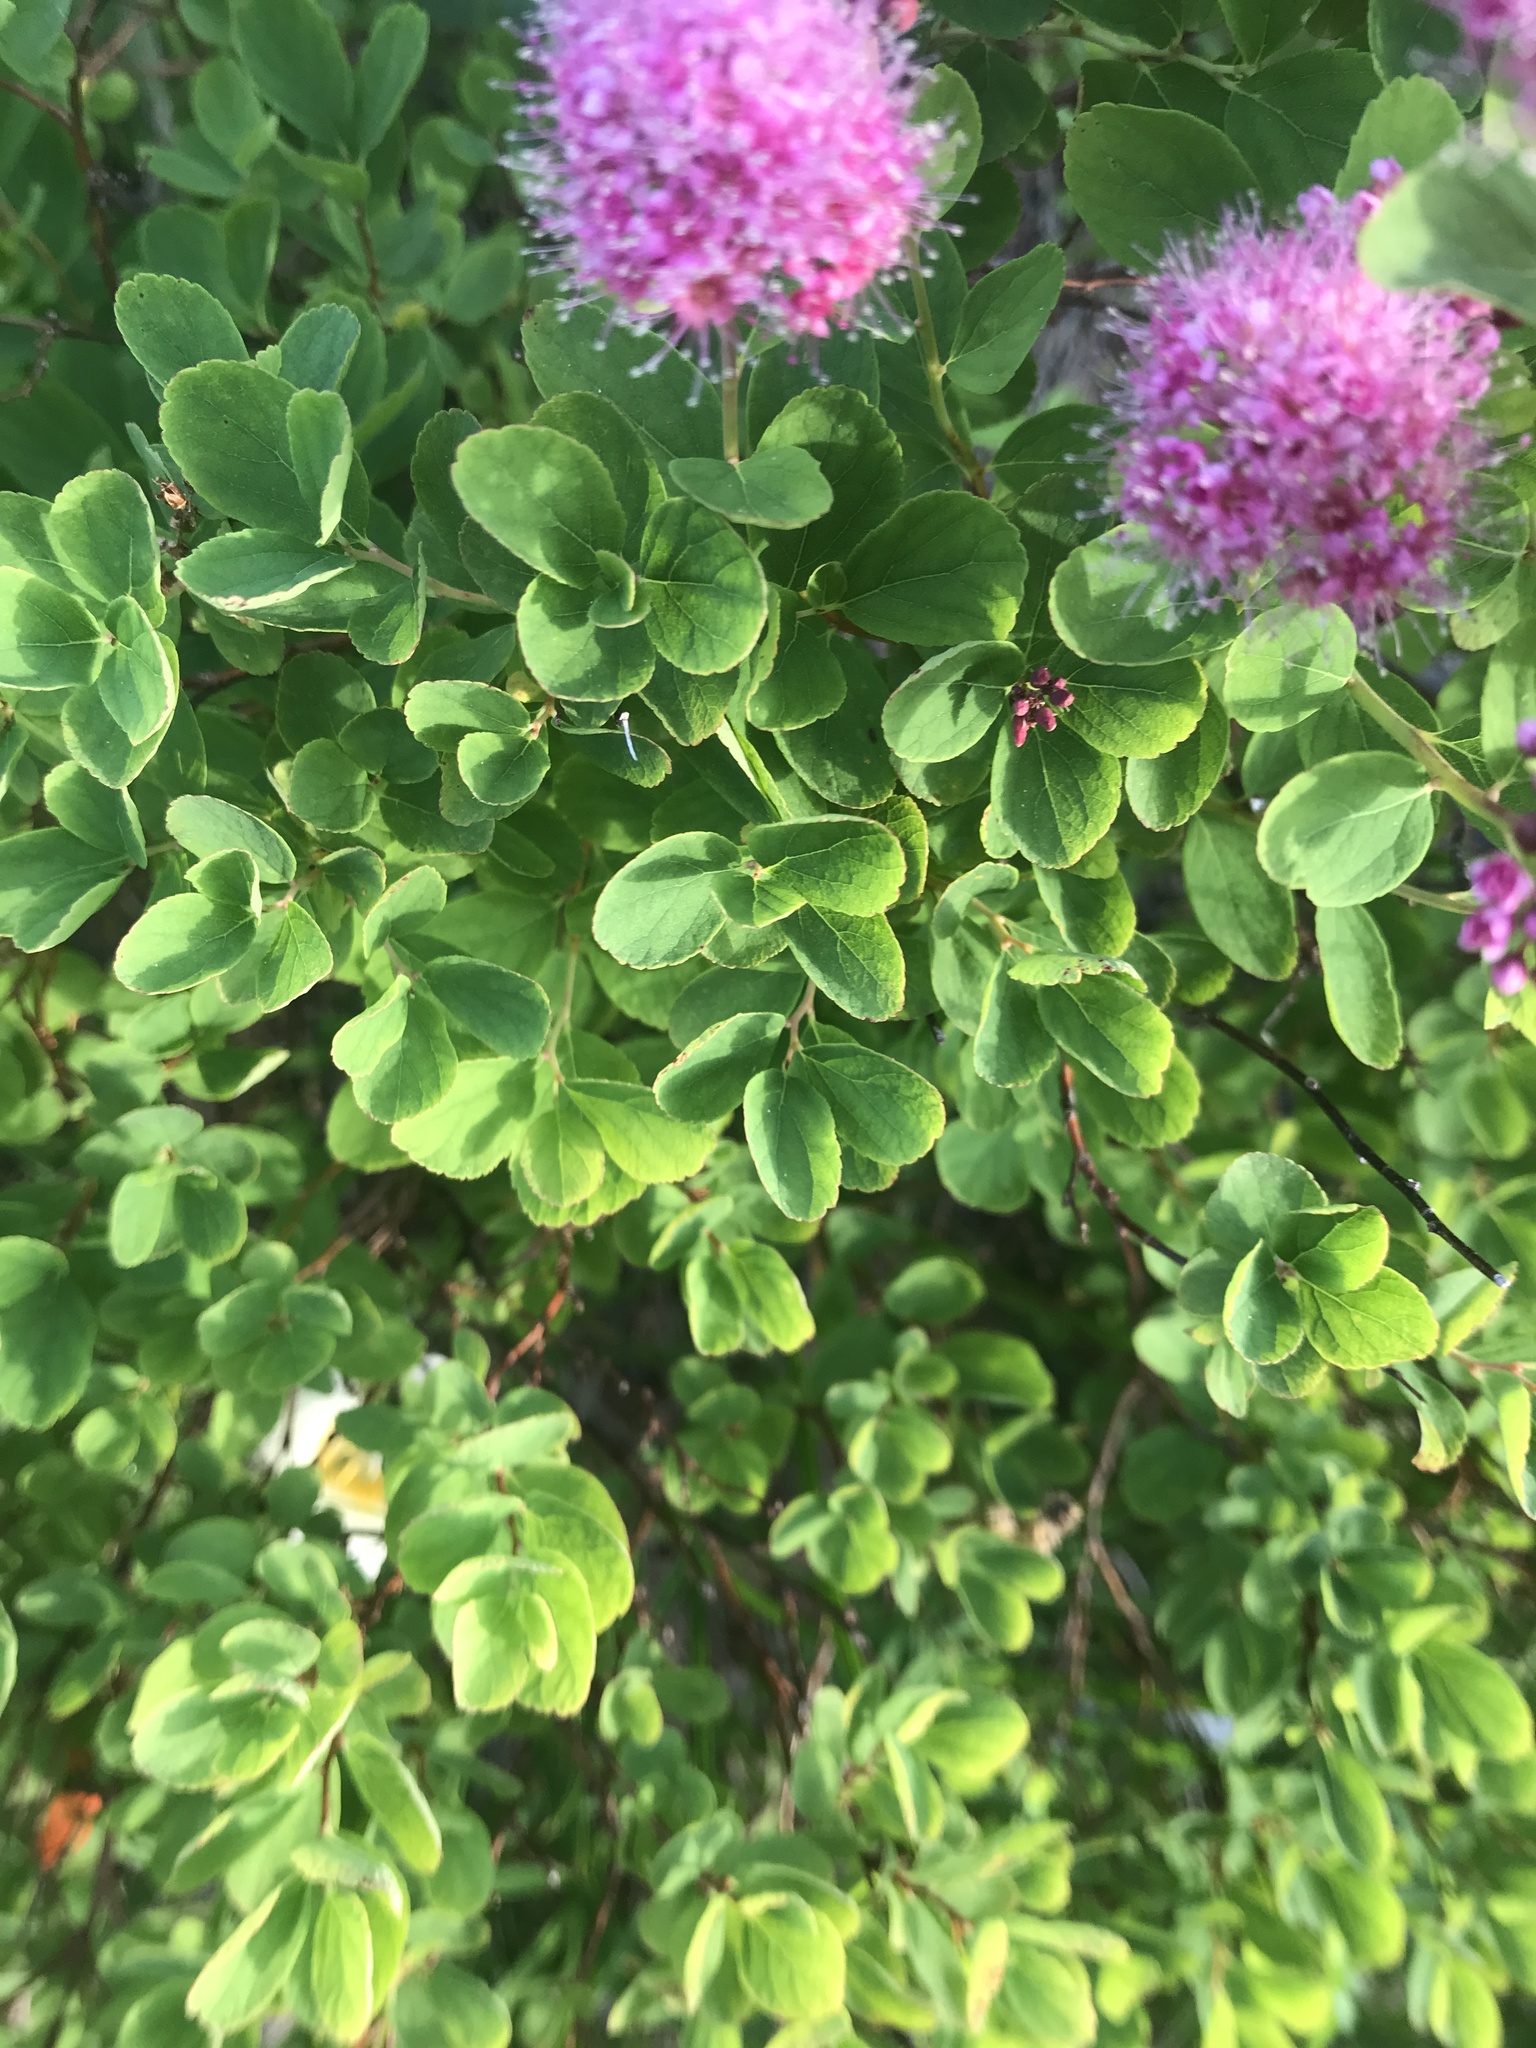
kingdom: Plantae
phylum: Tracheophyta
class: Magnoliopsida
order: Rosales
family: Rosaceae
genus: Spiraea
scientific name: Spiraea splendens
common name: Subalpine meadowsweet
